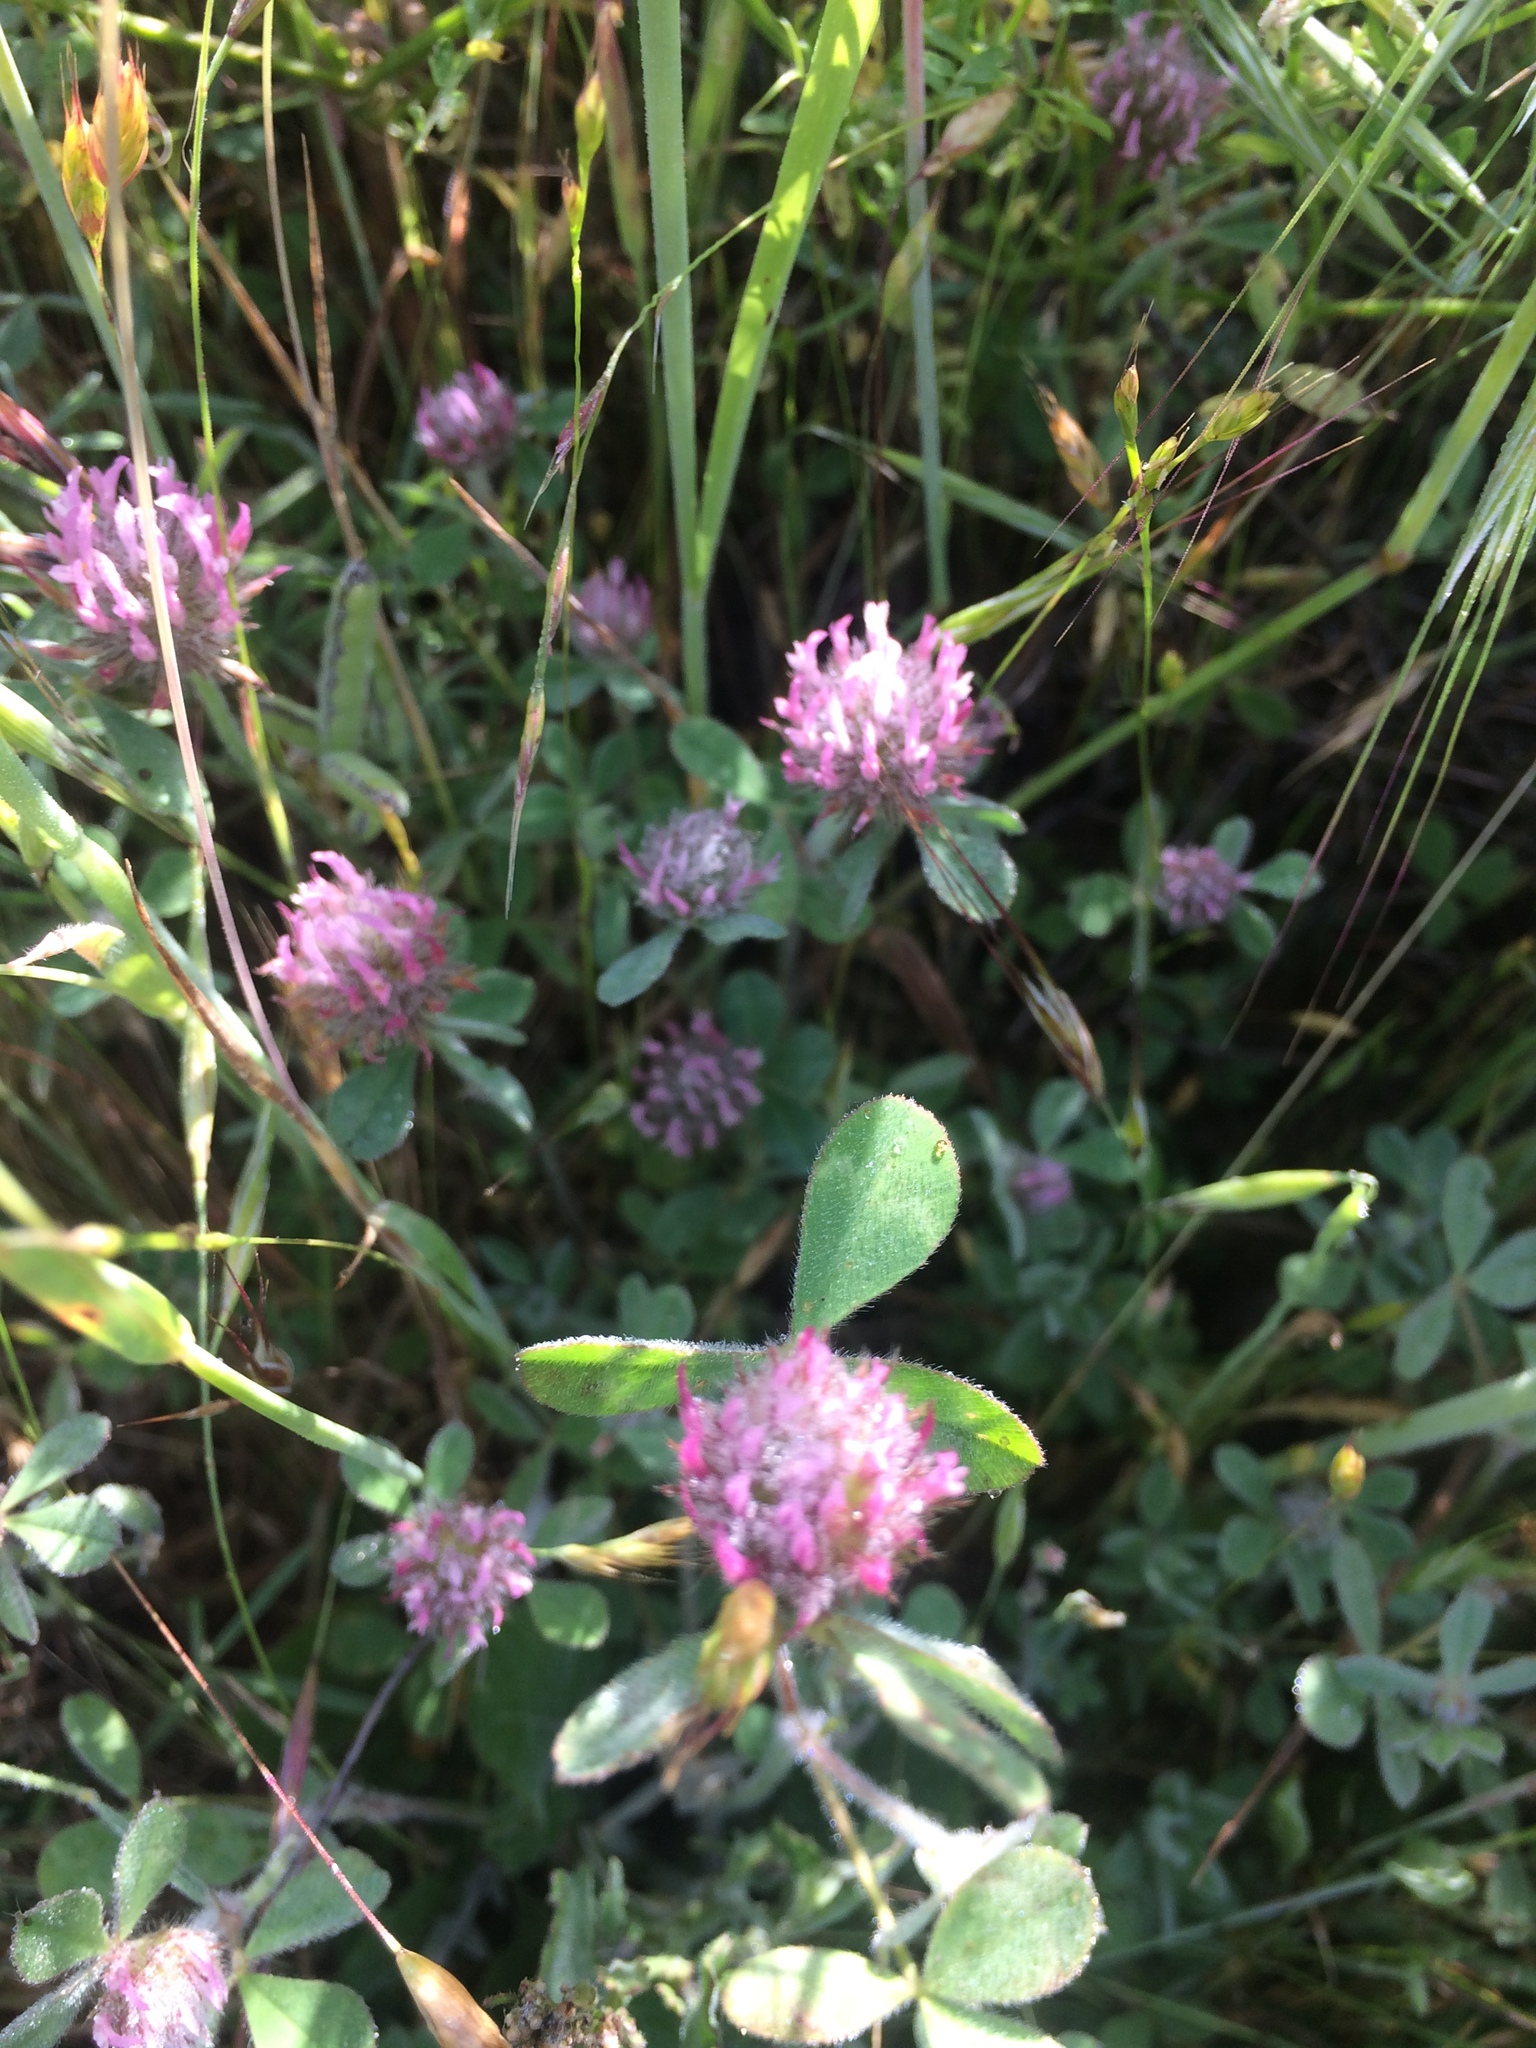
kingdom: Plantae
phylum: Tracheophyta
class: Magnoliopsida
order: Fabales
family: Fabaceae
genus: Trifolium
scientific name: Trifolium hirtum
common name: Rose clover
